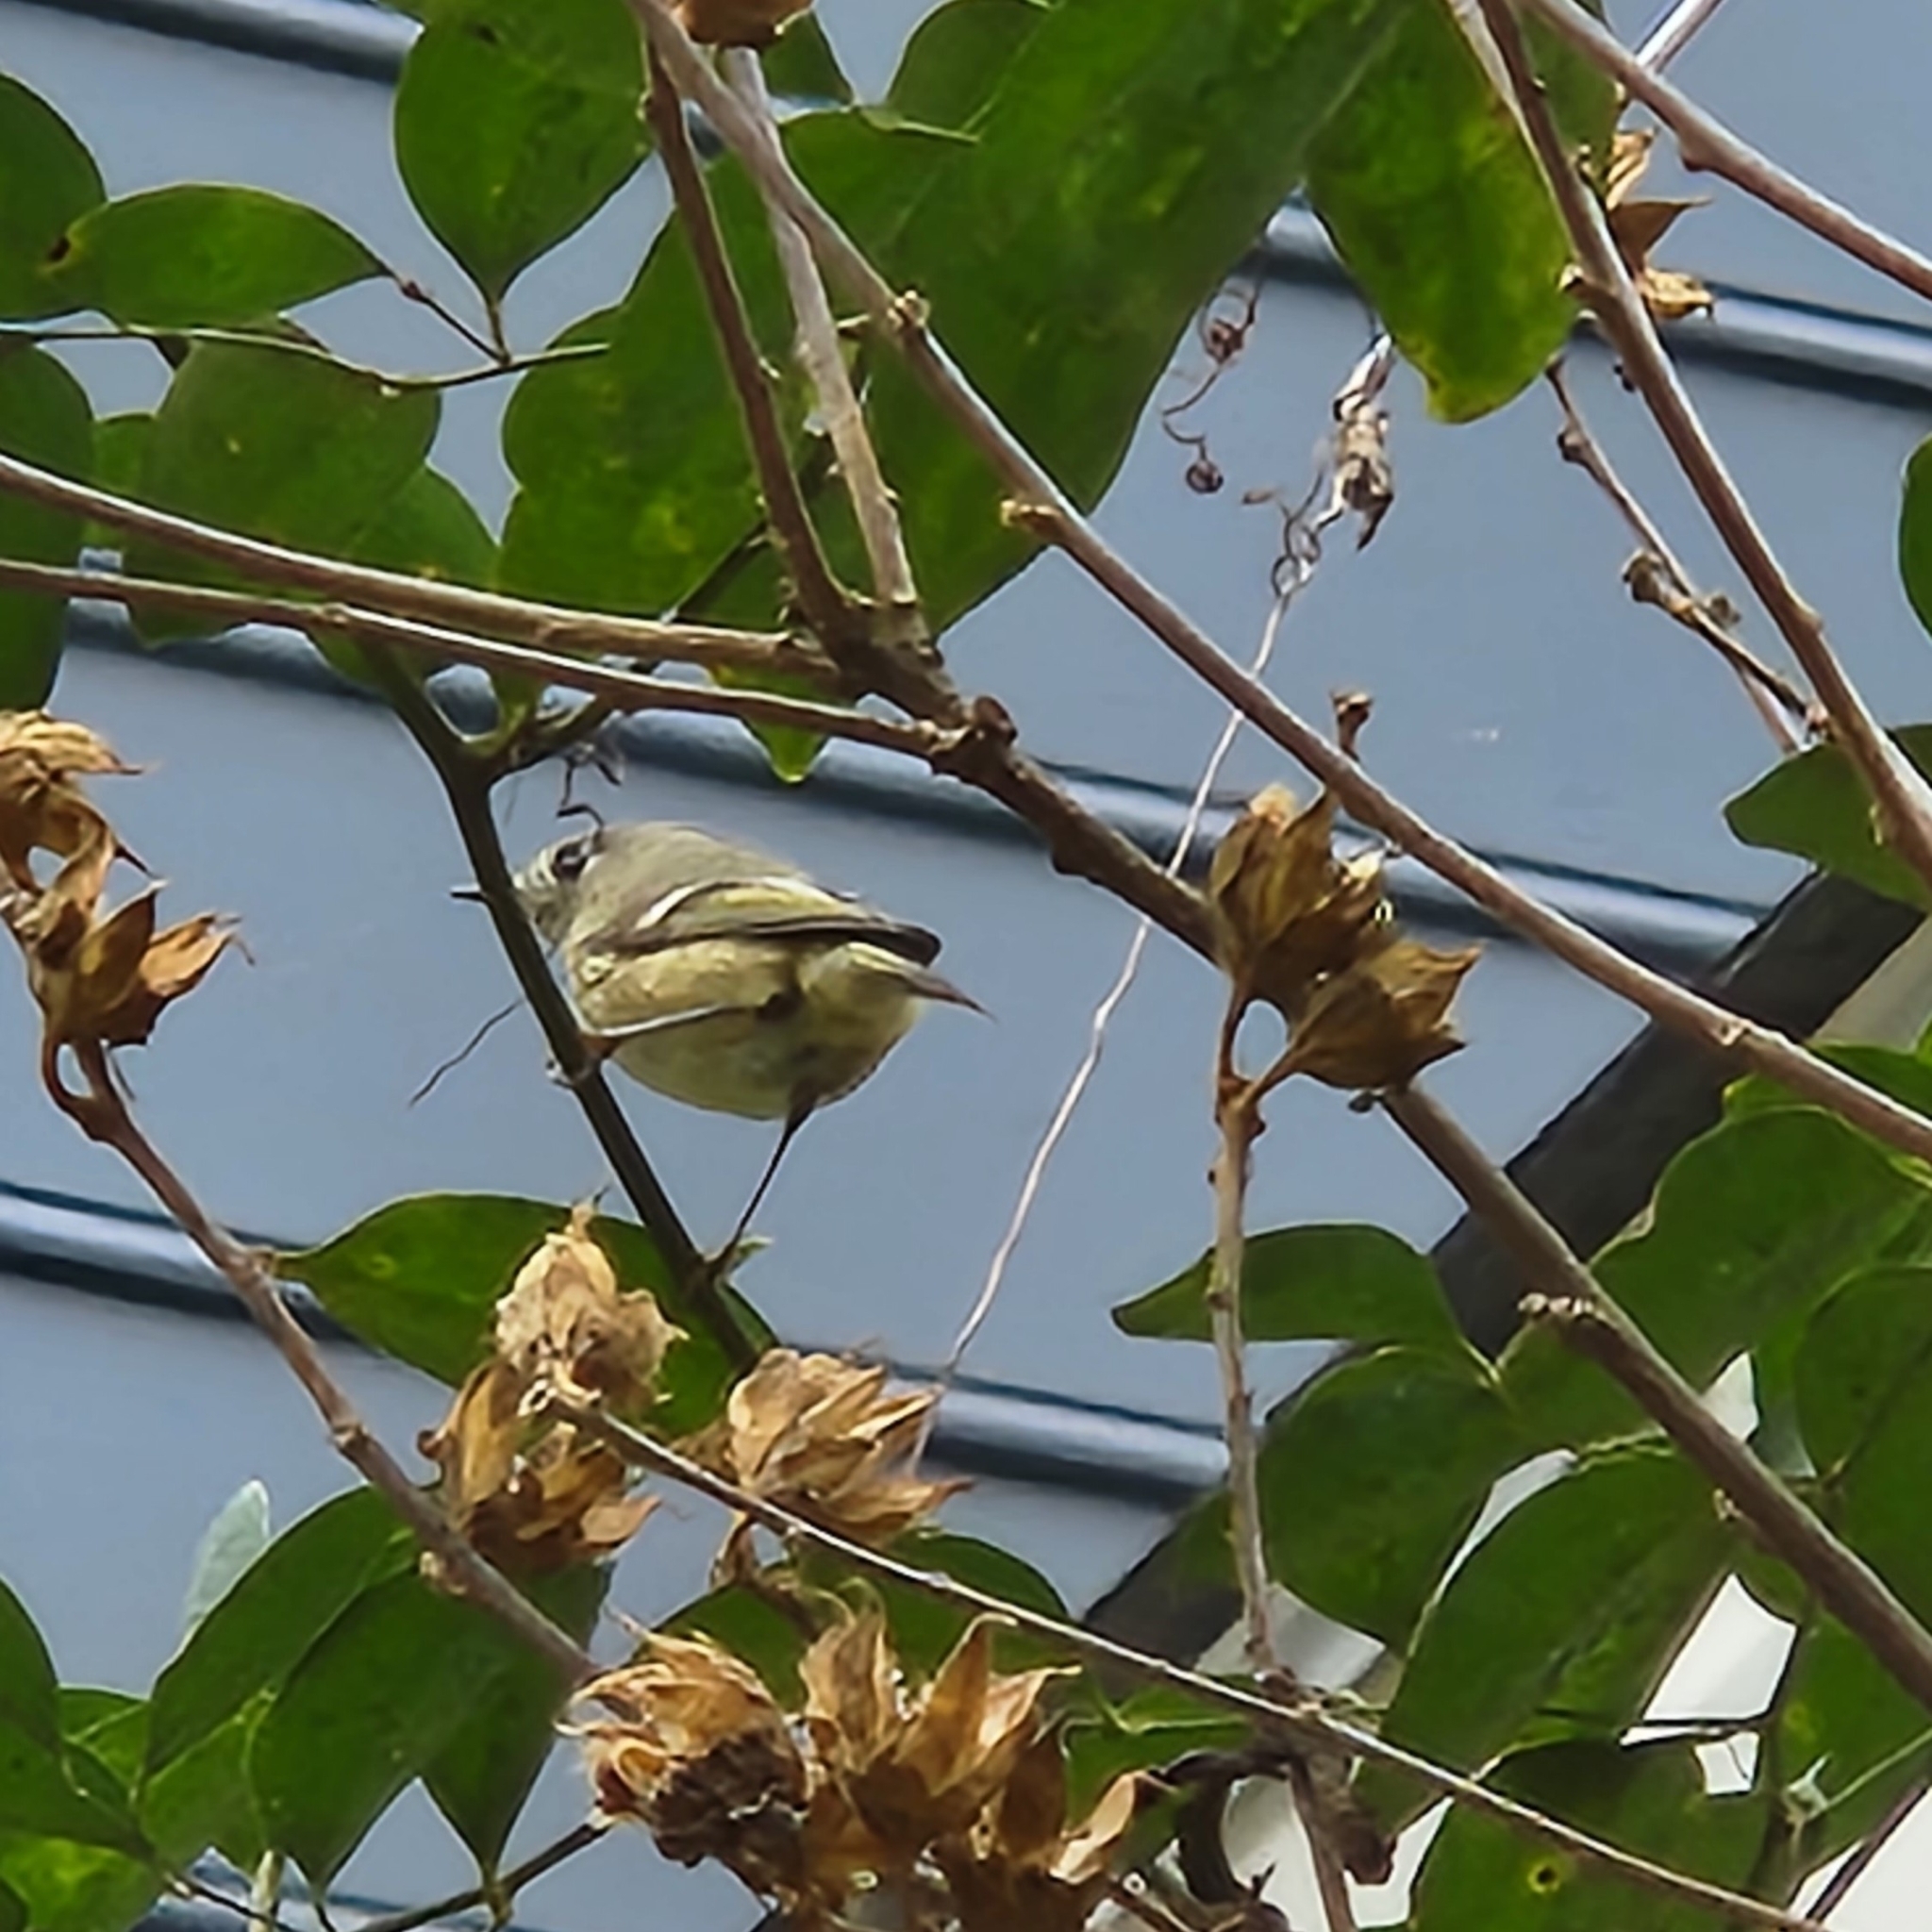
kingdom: Animalia
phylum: Chordata
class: Aves
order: Passeriformes
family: Regulidae
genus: Regulus
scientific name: Regulus calendula
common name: Ruby-crowned kinglet
